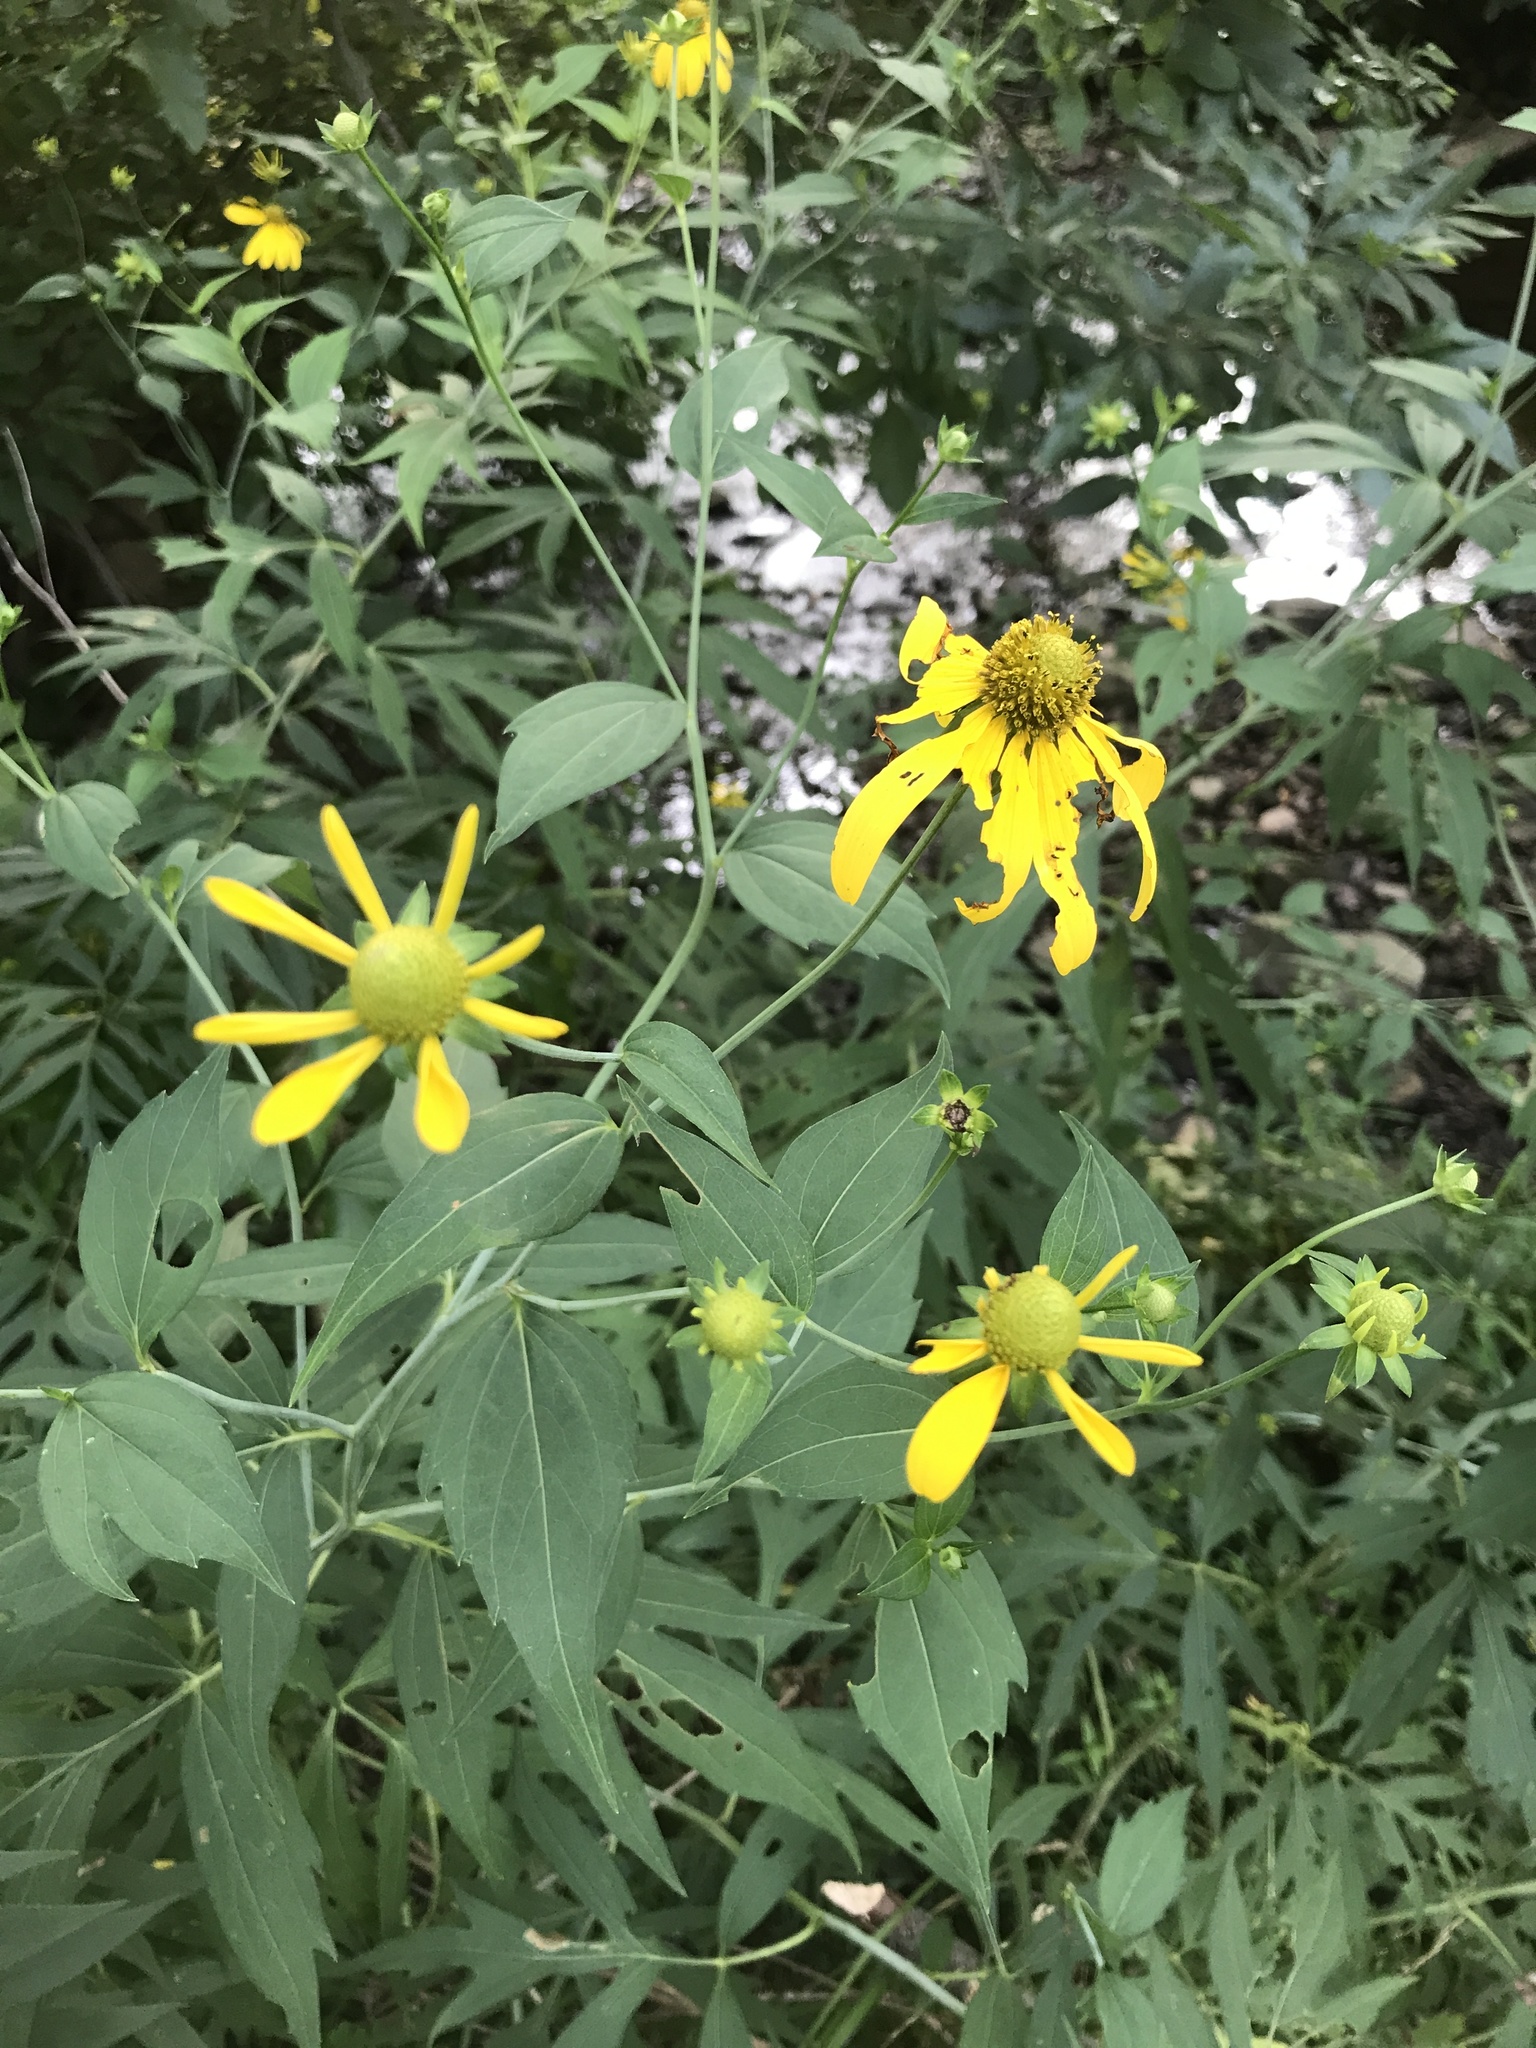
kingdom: Plantae
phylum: Tracheophyta
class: Magnoliopsida
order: Asterales
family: Asteraceae
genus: Rudbeckia
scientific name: Rudbeckia laciniata
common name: Coneflower
